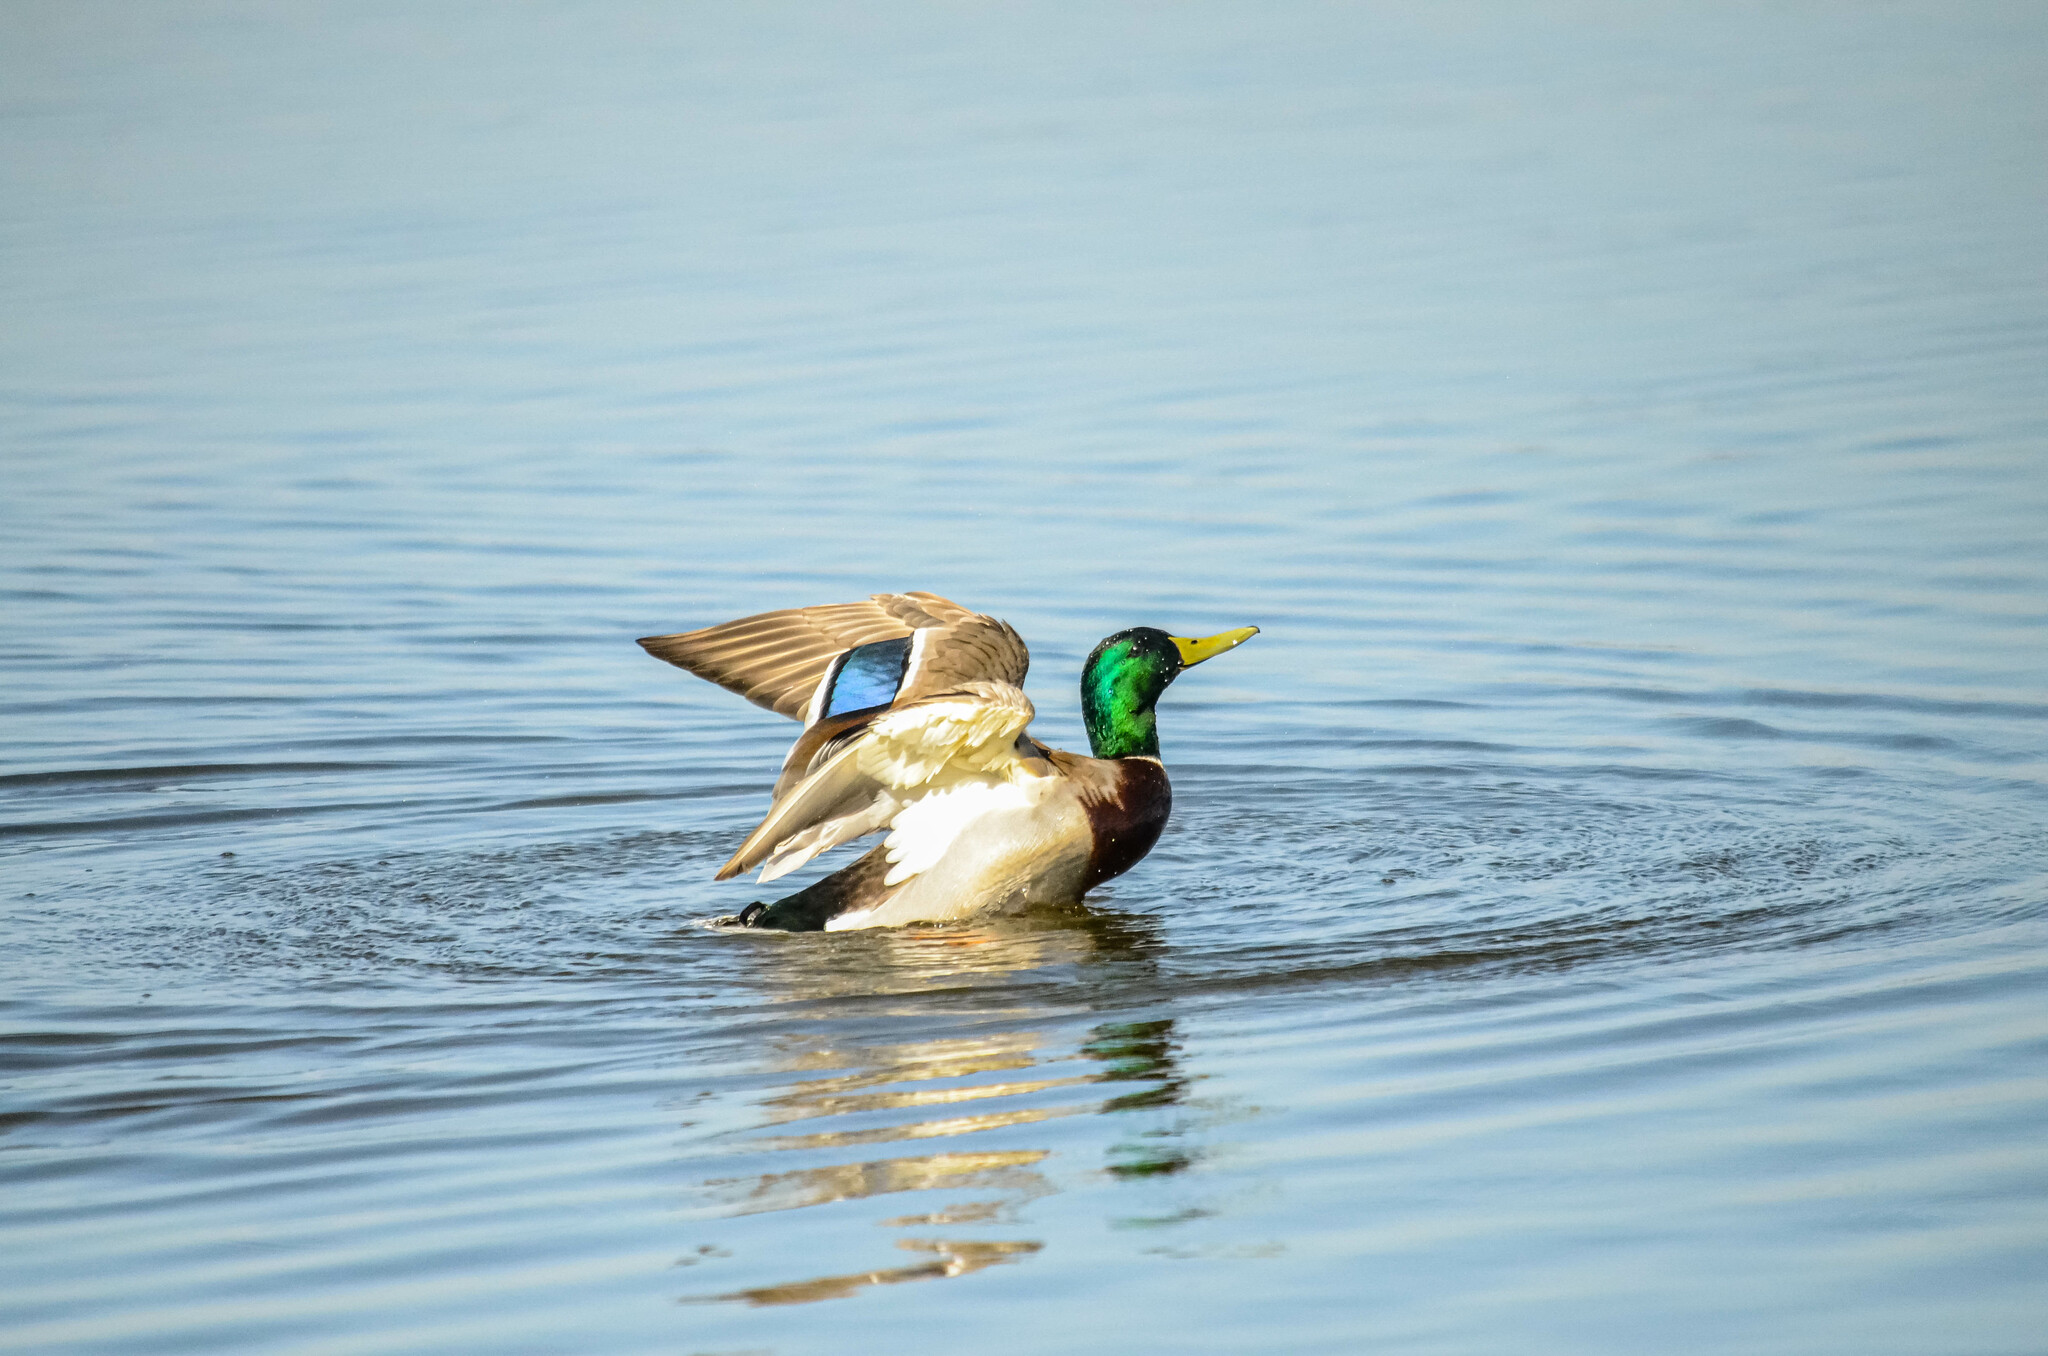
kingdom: Animalia
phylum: Chordata
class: Aves
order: Anseriformes
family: Anatidae
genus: Anas
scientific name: Anas platyrhynchos
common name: Mallard
